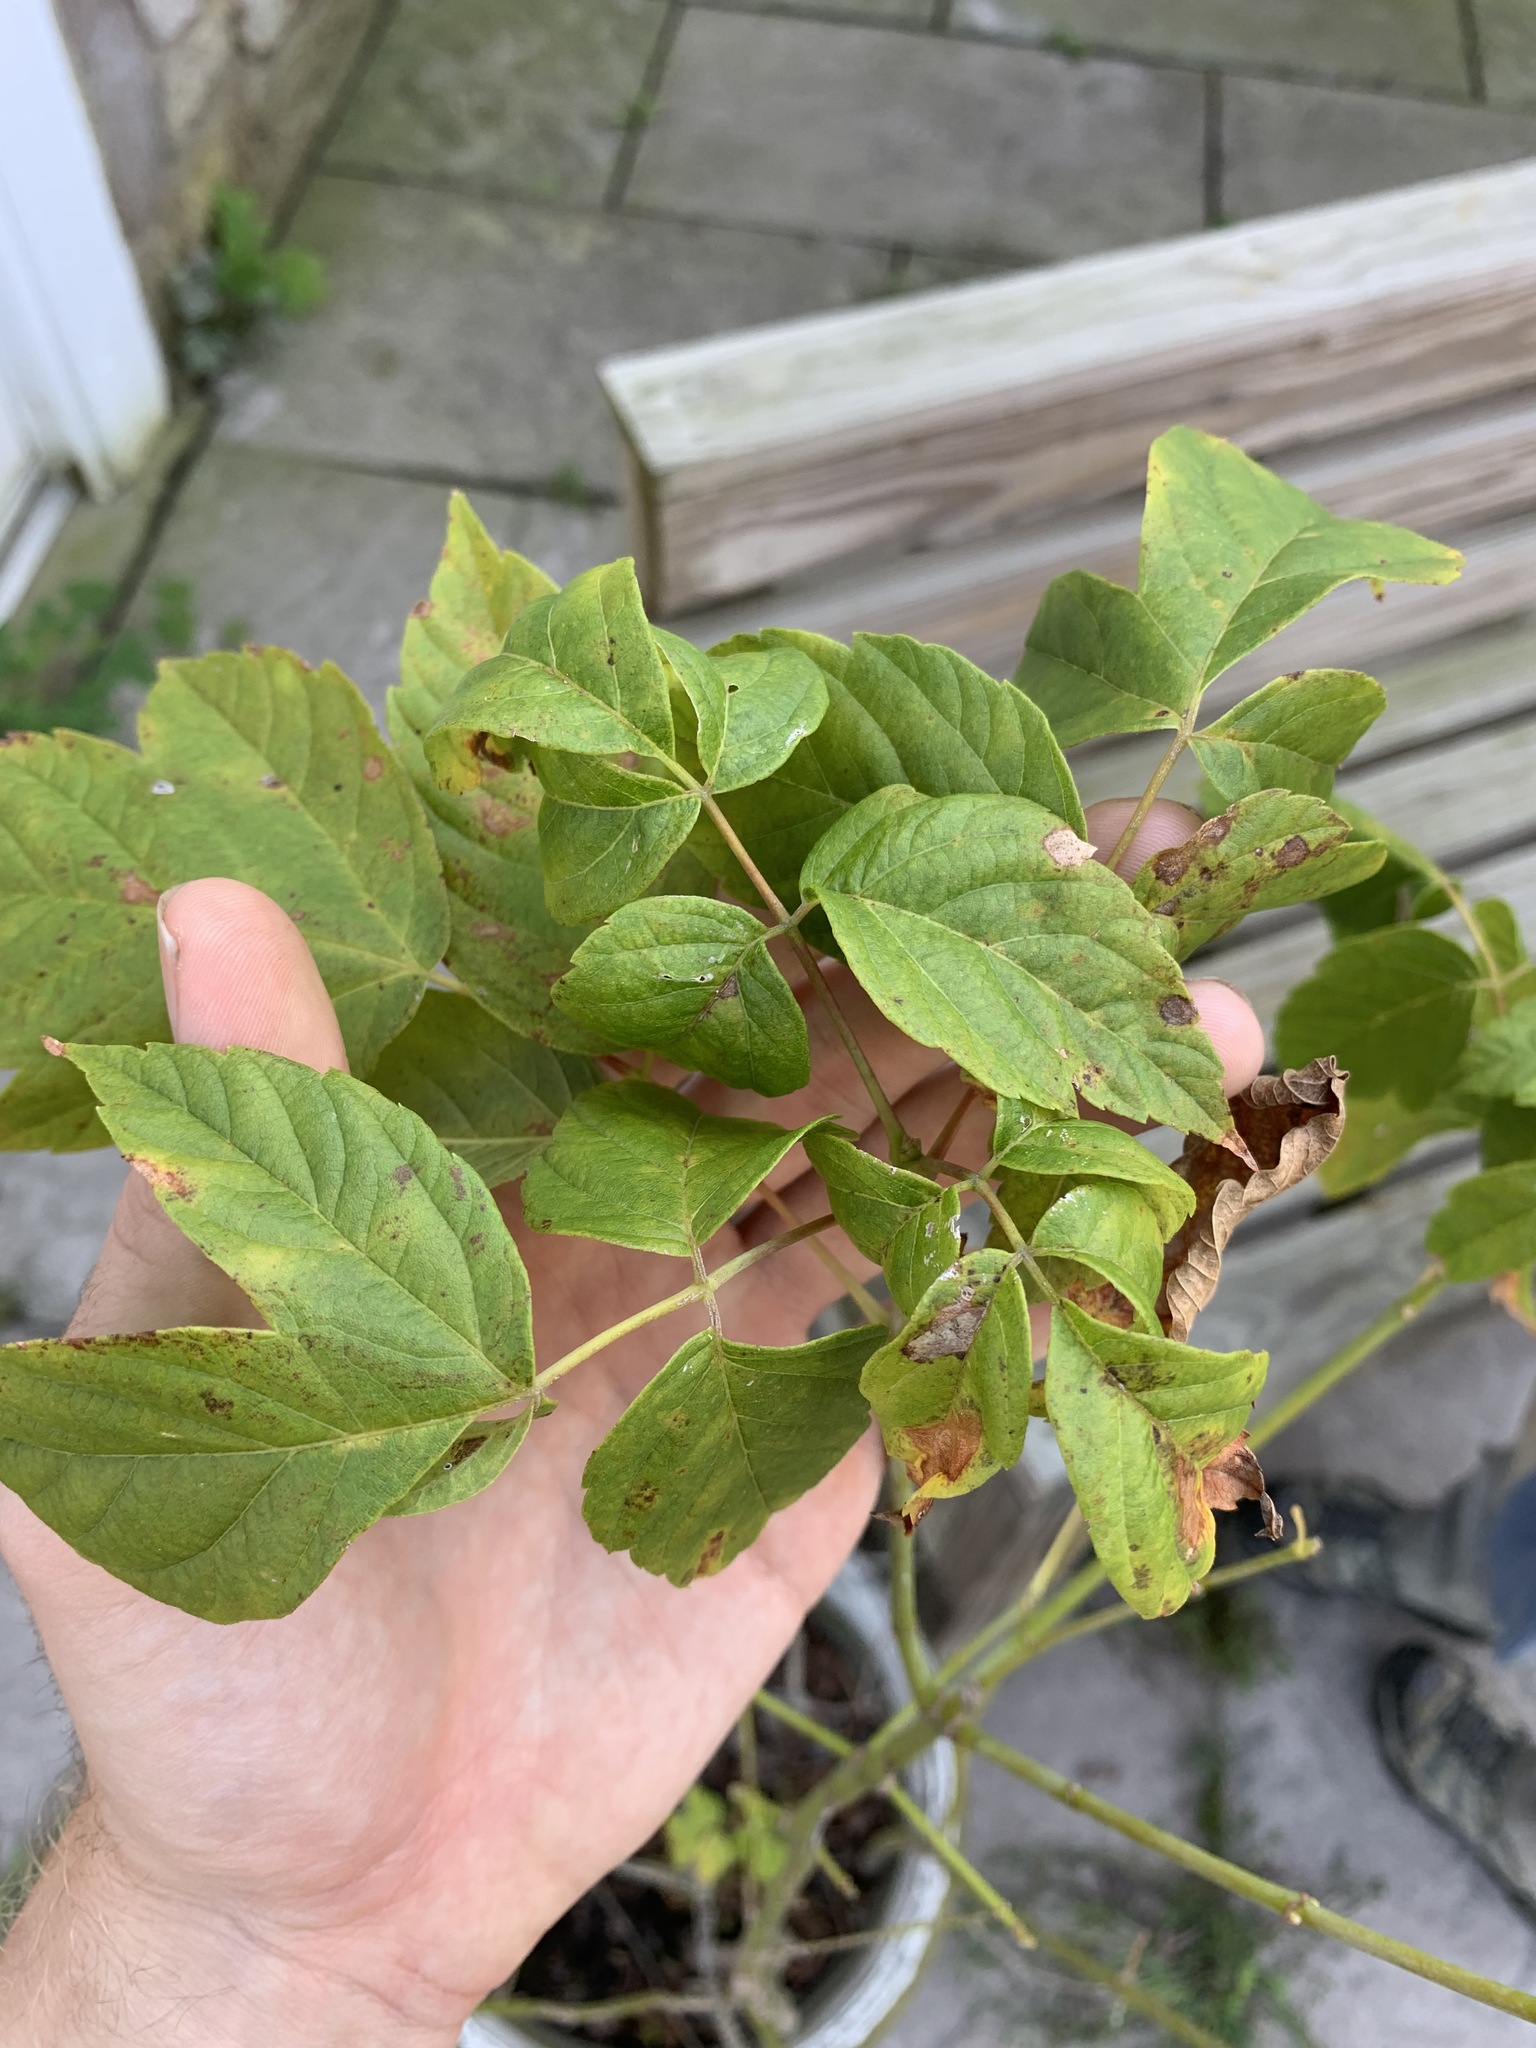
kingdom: Plantae
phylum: Tracheophyta
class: Magnoliopsida
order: Sapindales
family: Sapindaceae
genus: Acer
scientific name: Acer negundo
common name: Ashleaf maple
